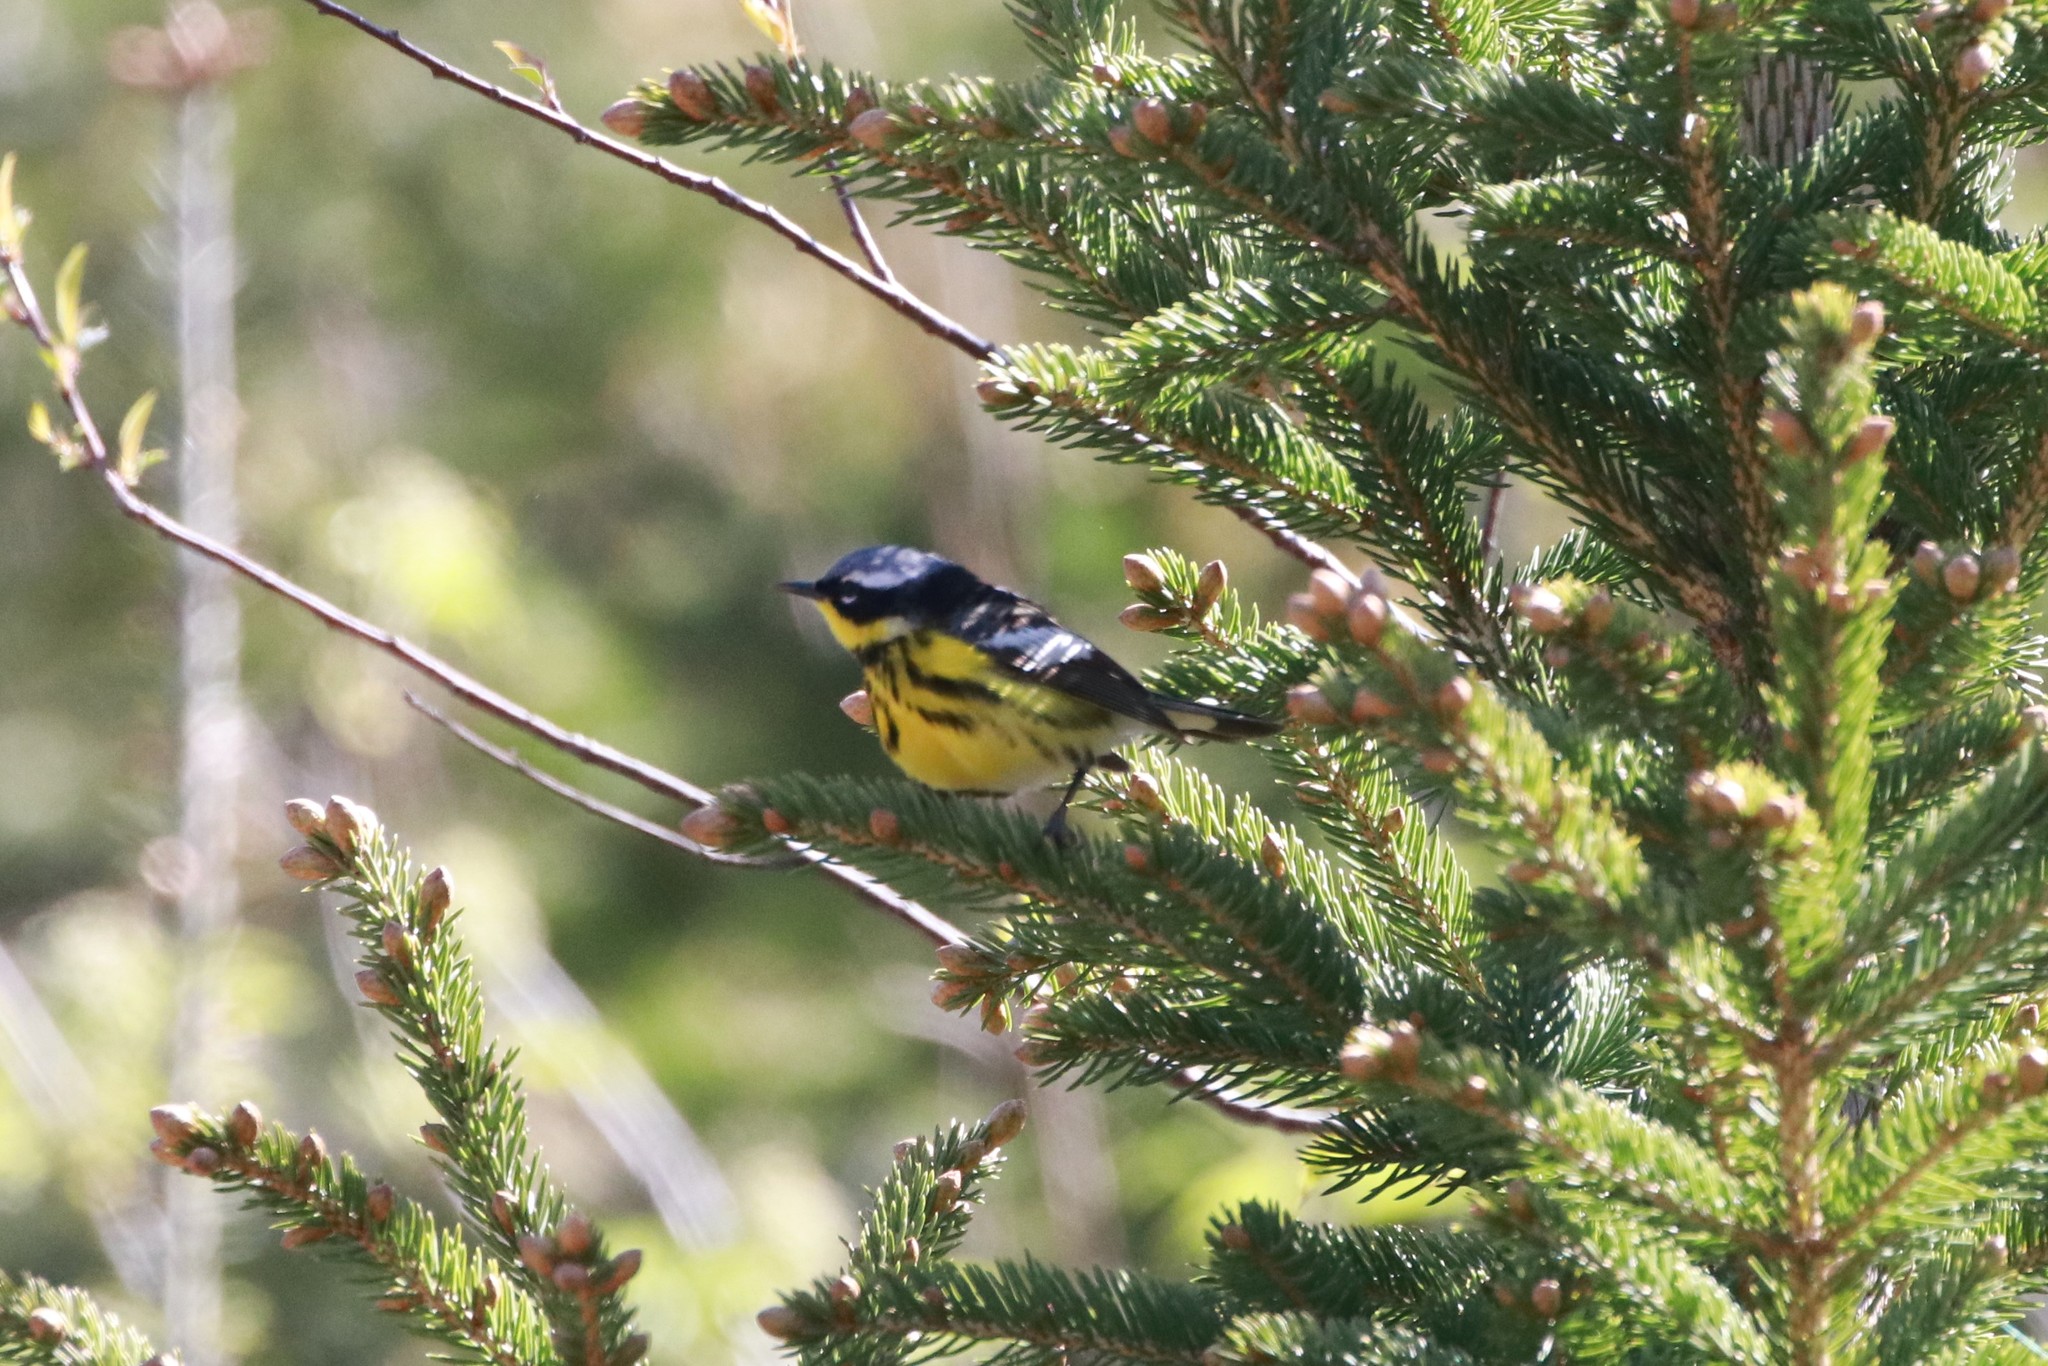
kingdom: Animalia
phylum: Chordata
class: Aves
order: Passeriformes
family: Parulidae
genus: Setophaga
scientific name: Setophaga magnolia
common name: Magnolia warbler
